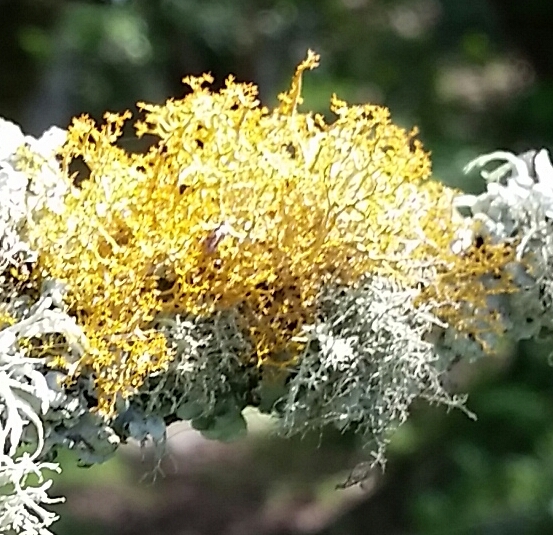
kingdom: Fungi
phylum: Ascomycota
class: Lecanoromycetes
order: Teloschistales
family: Teloschistaceae
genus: Teloschistes
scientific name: Teloschistes flavicans
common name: Golden hair-lichen
